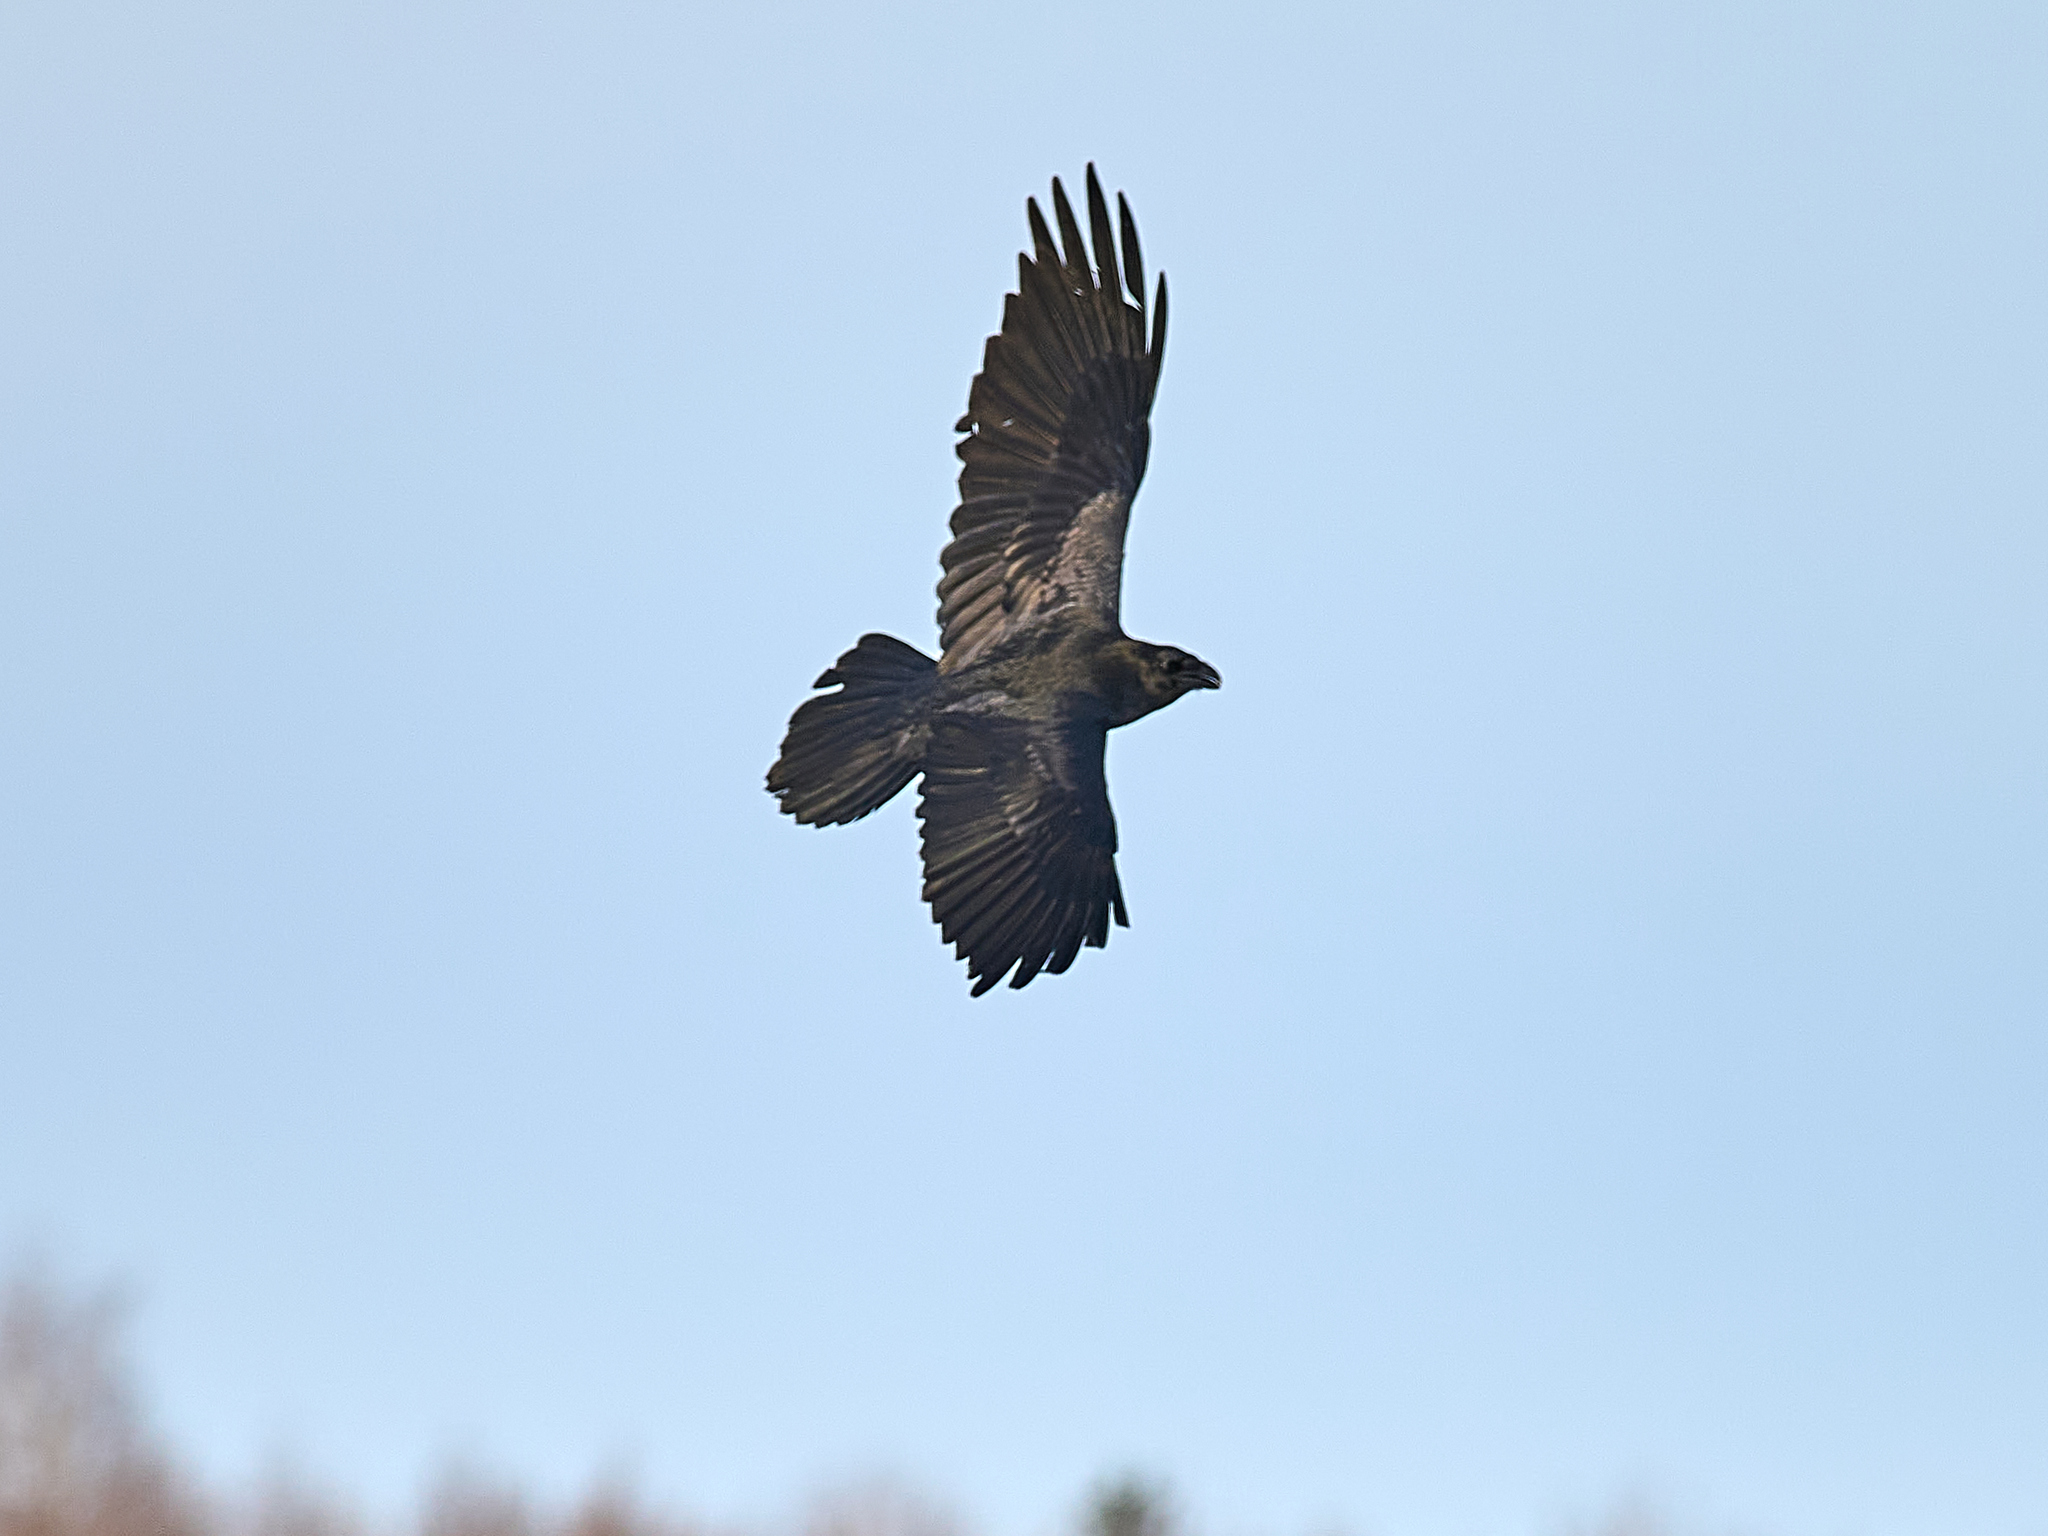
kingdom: Animalia
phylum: Chordata
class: Aves
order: Passeriformes
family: Corvidae
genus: Corvus
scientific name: Corvus corax
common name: Common raven
